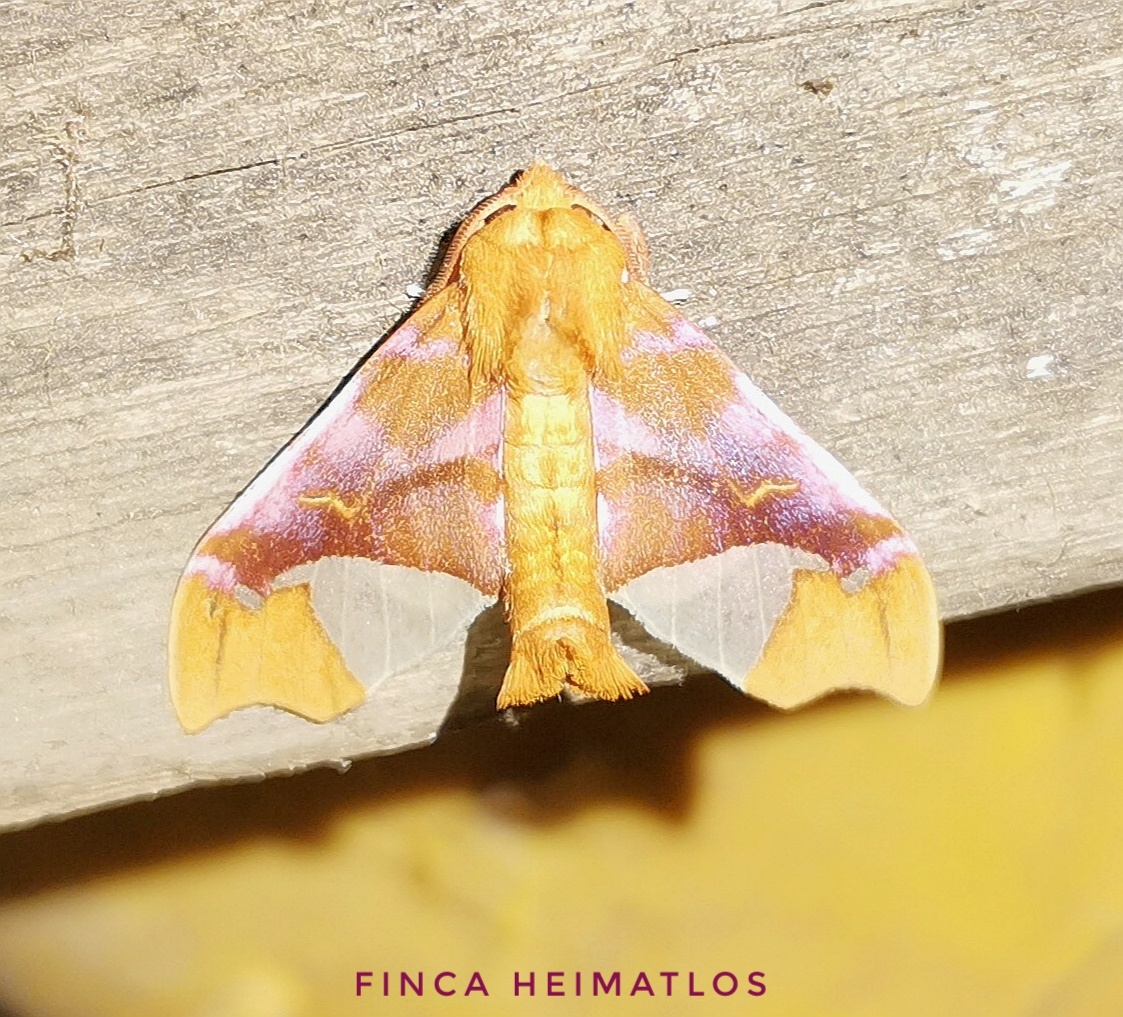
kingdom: Animalia
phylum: Arthropoda
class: Insecta
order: Lepidoptera
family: Erebidae
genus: Zaevius
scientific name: Zaevius calocore
